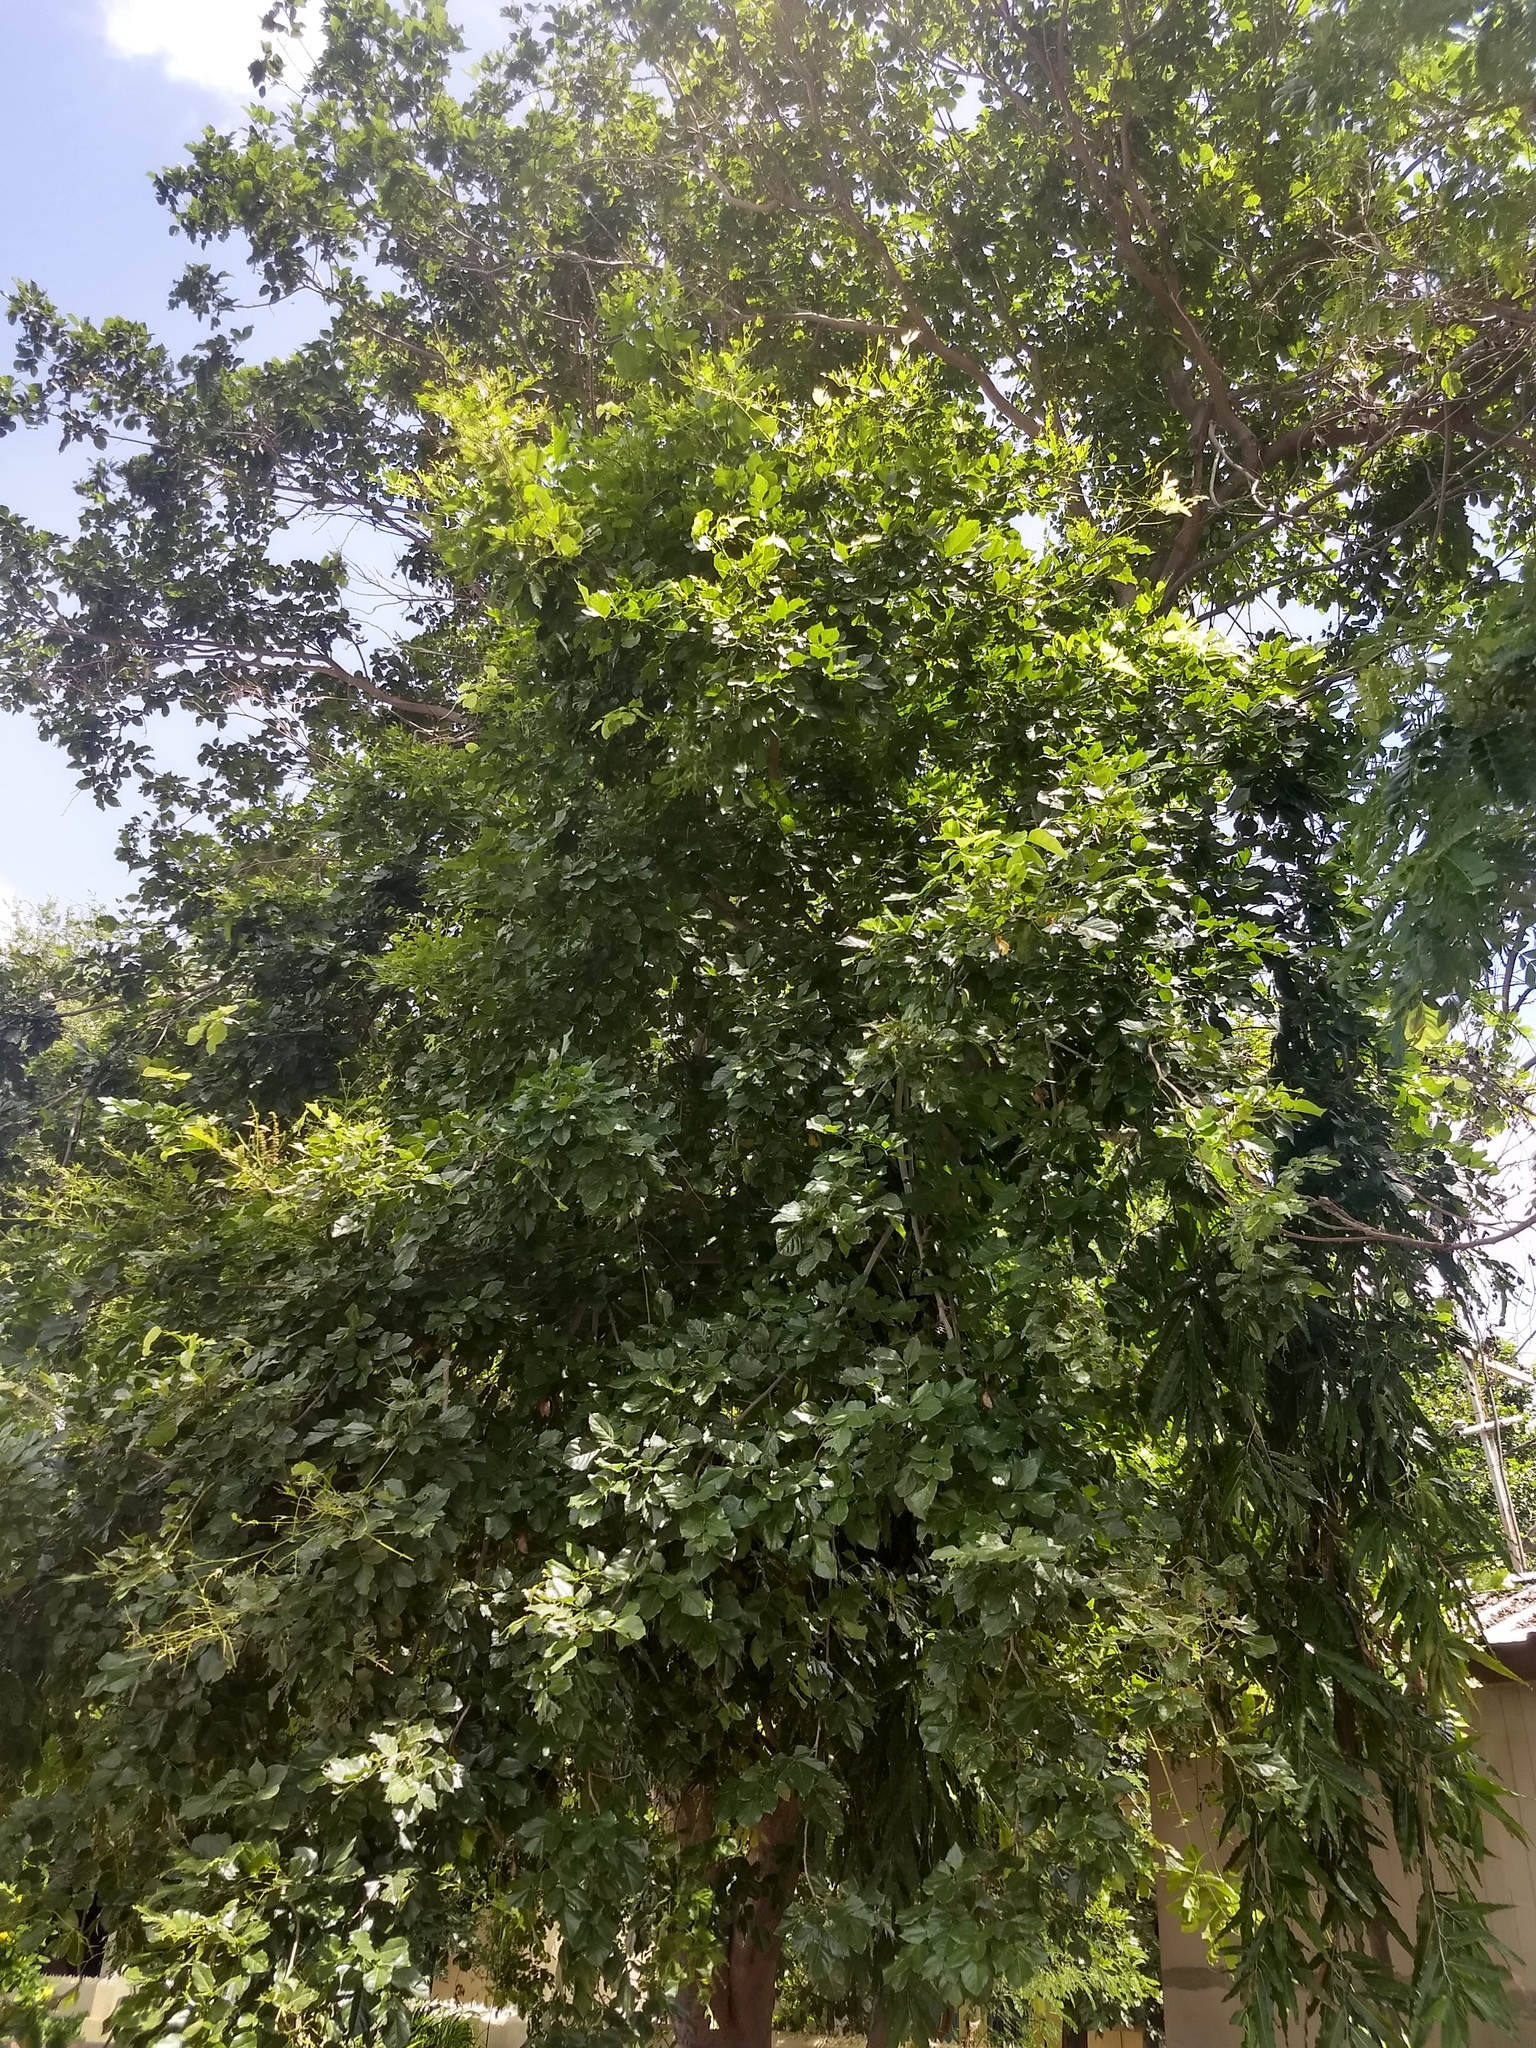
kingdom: Plantae
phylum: Tracheophyta
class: Magnoliopsida
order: Fabales
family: Fabaceae
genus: Pongamia
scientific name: Pongamia pinnata
